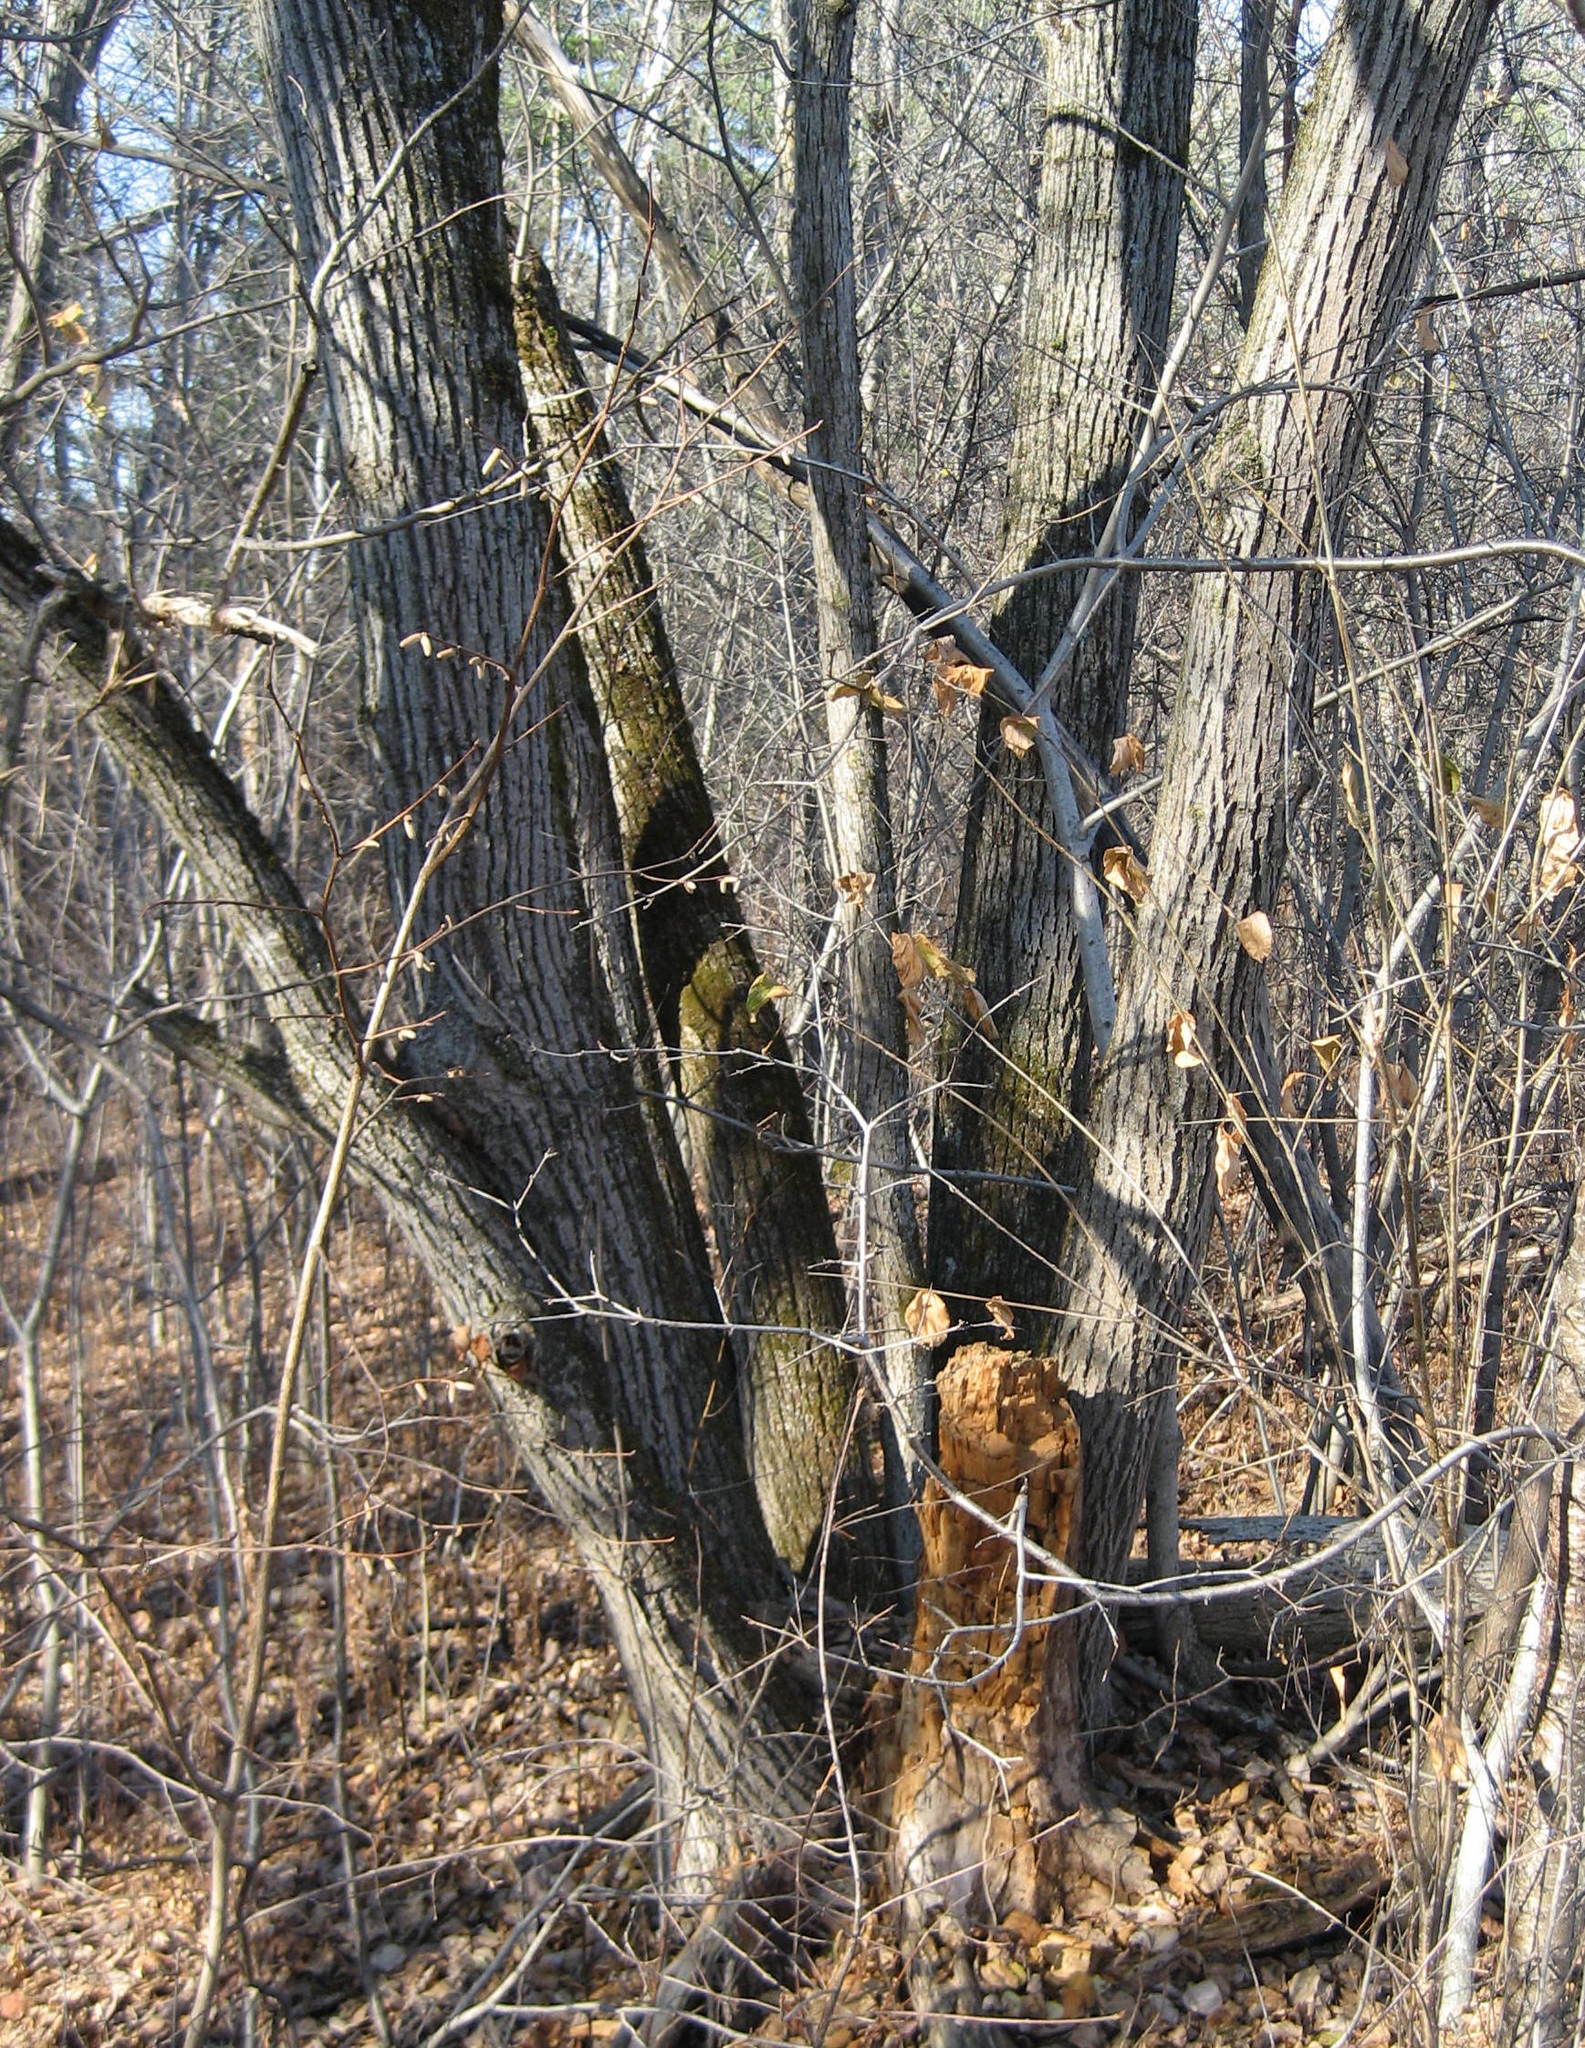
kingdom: Plantae
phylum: Tracheophyta
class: Magnoliopsida
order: Malvales
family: Malvaceae
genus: Tilia
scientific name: Tilia americana
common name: Basswood
